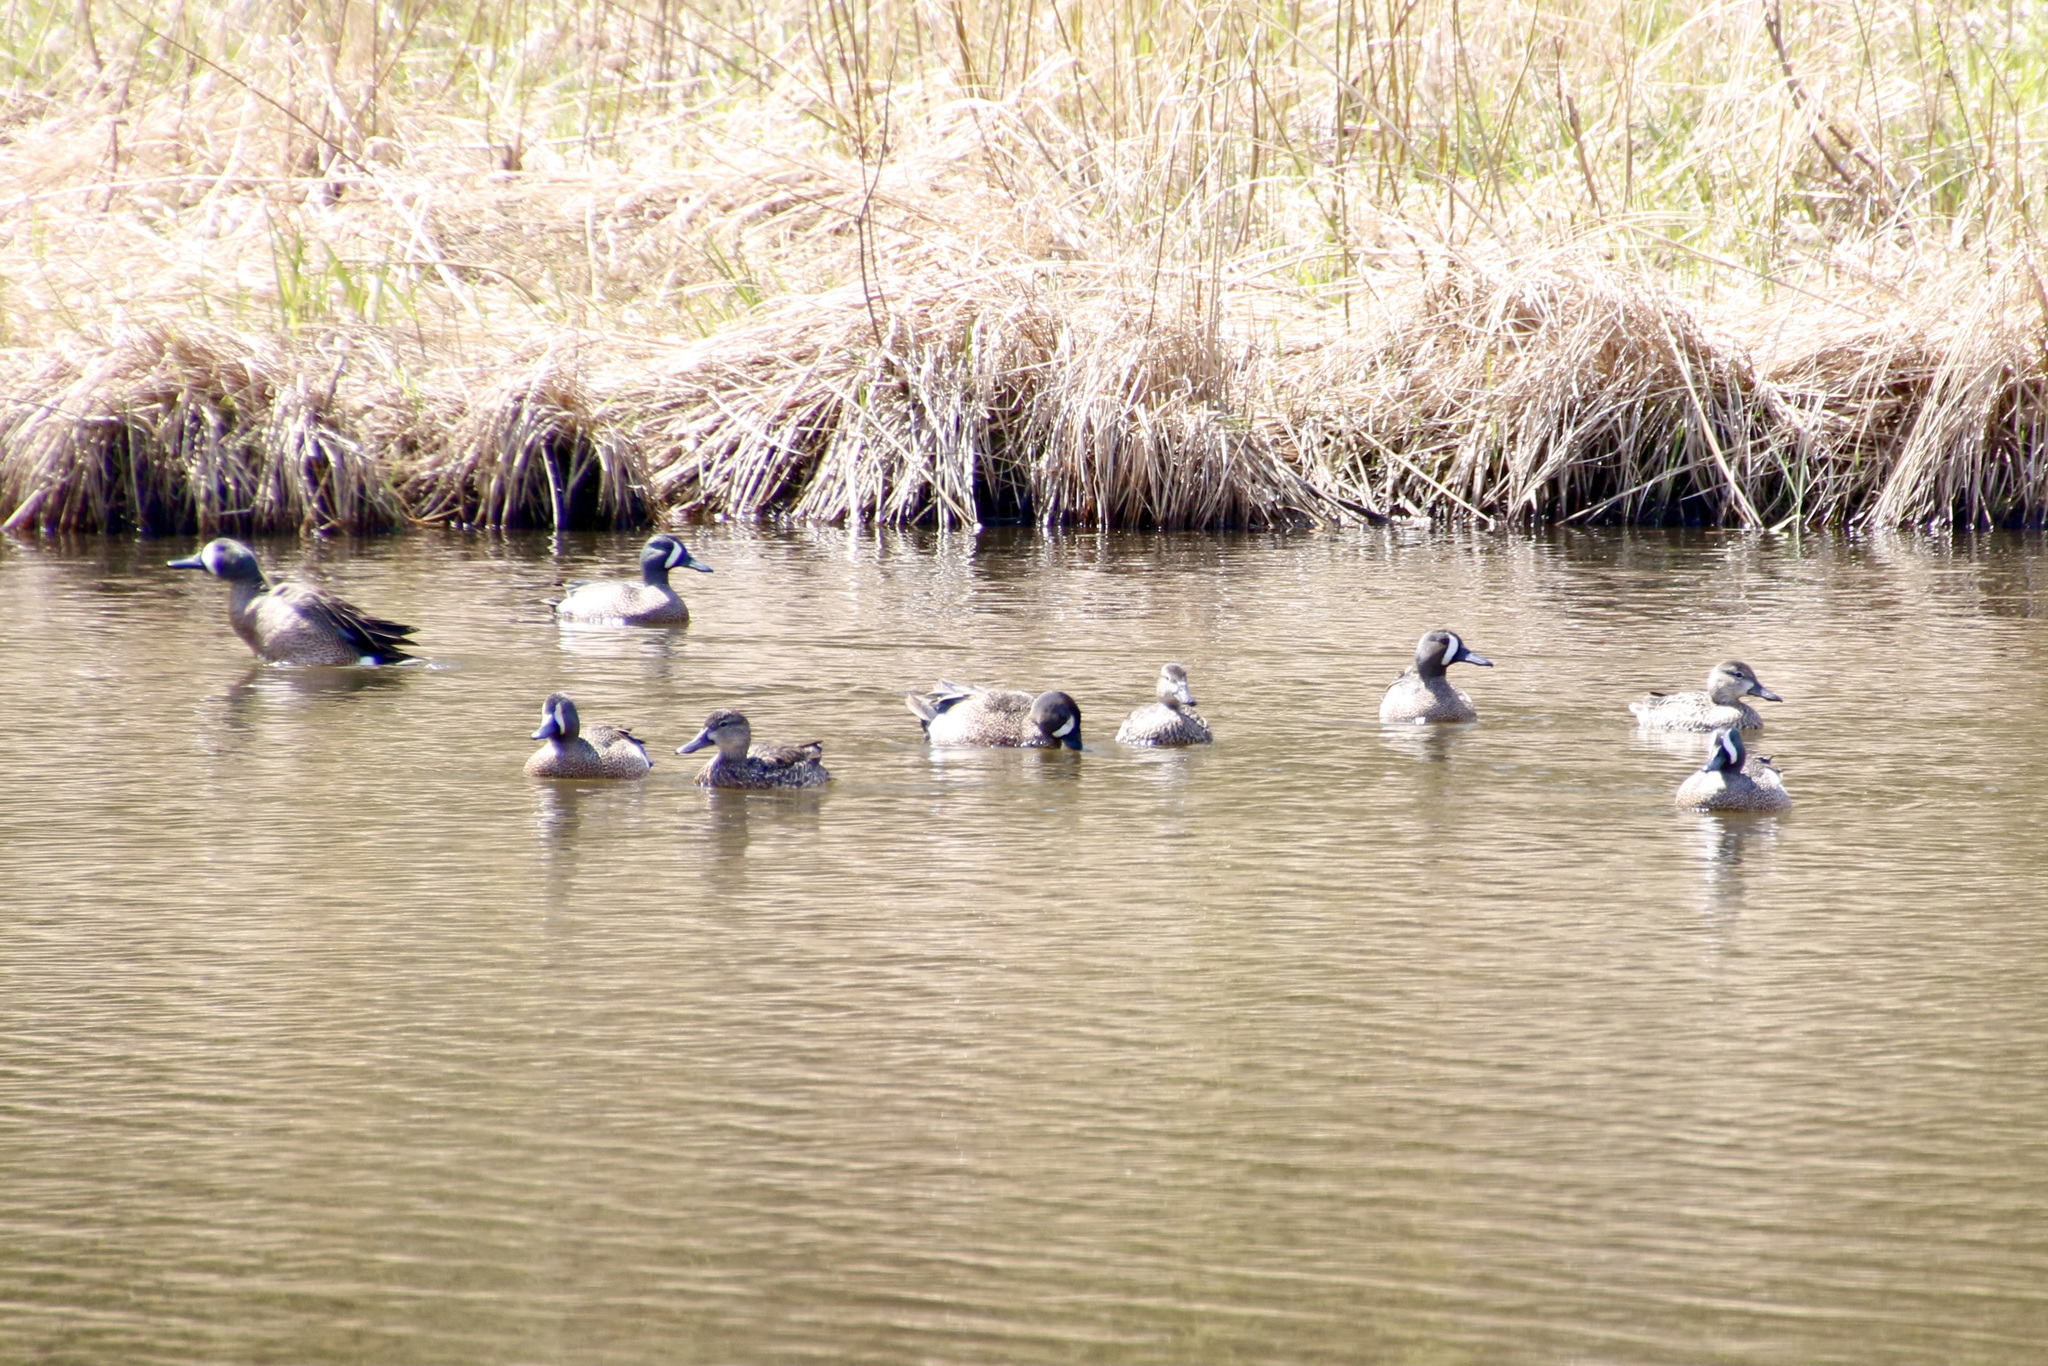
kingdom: Animalia
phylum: Chordata
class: Aves
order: Anseriformes
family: Anatidae
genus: Spatula
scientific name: Spatula discors
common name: Blue-winged teal
